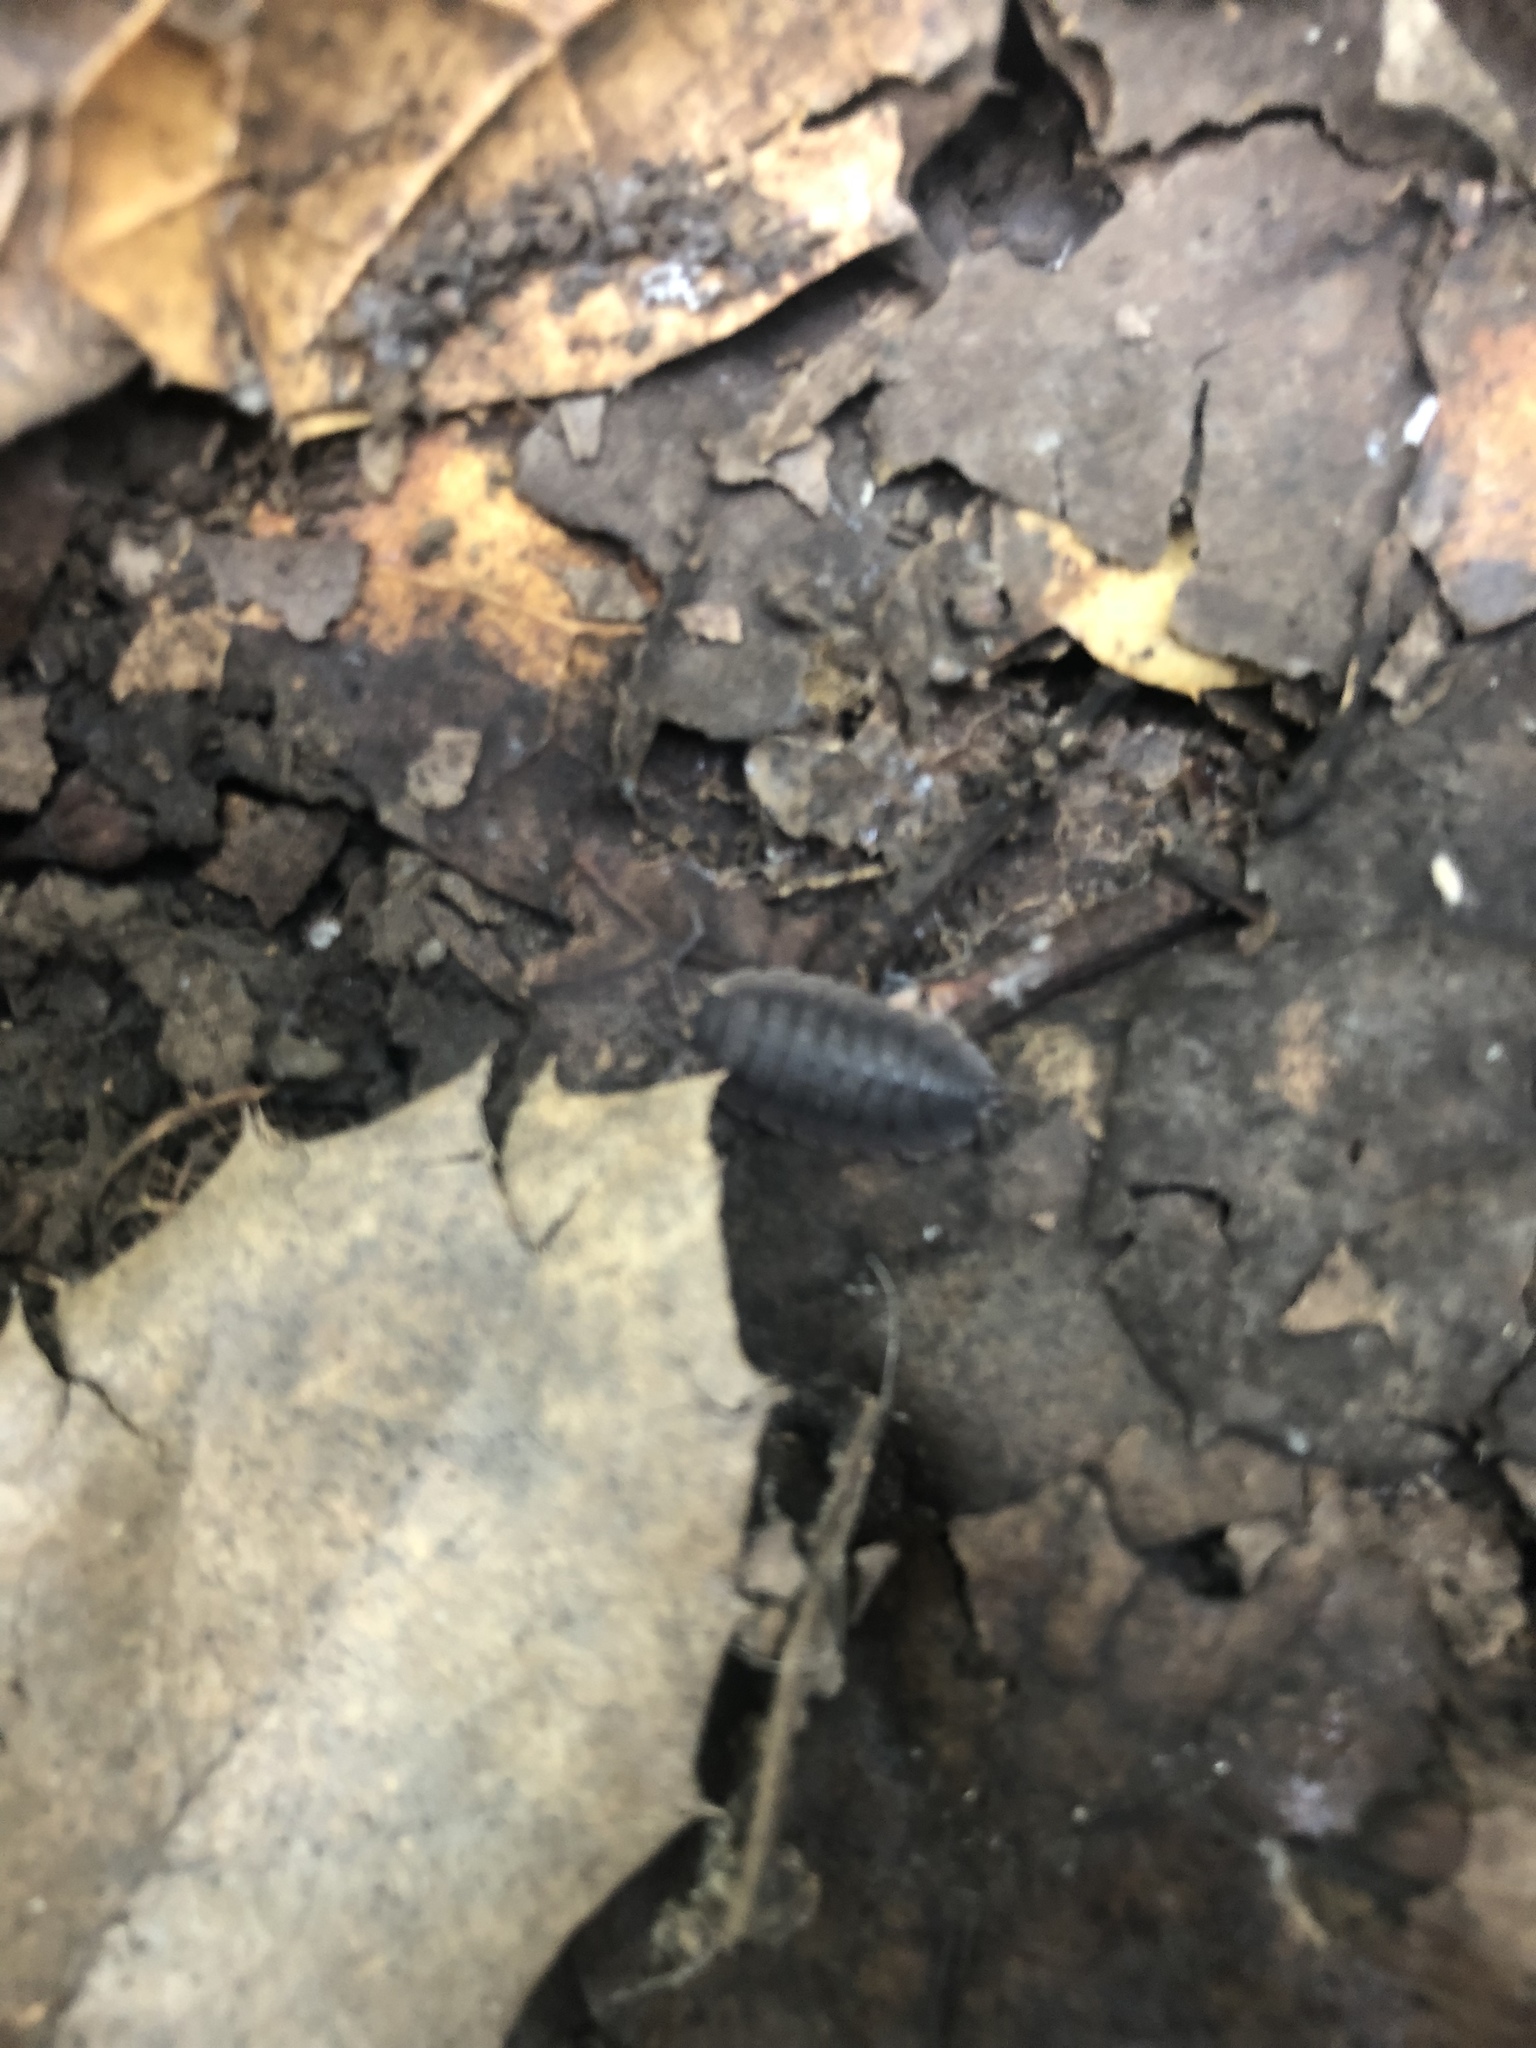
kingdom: Animalia
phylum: Arthropoda
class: Malacostraca
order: Isopoda
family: Porcellionidae
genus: Porcellio
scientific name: Porcellio scaber
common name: Common rough woodlouse
